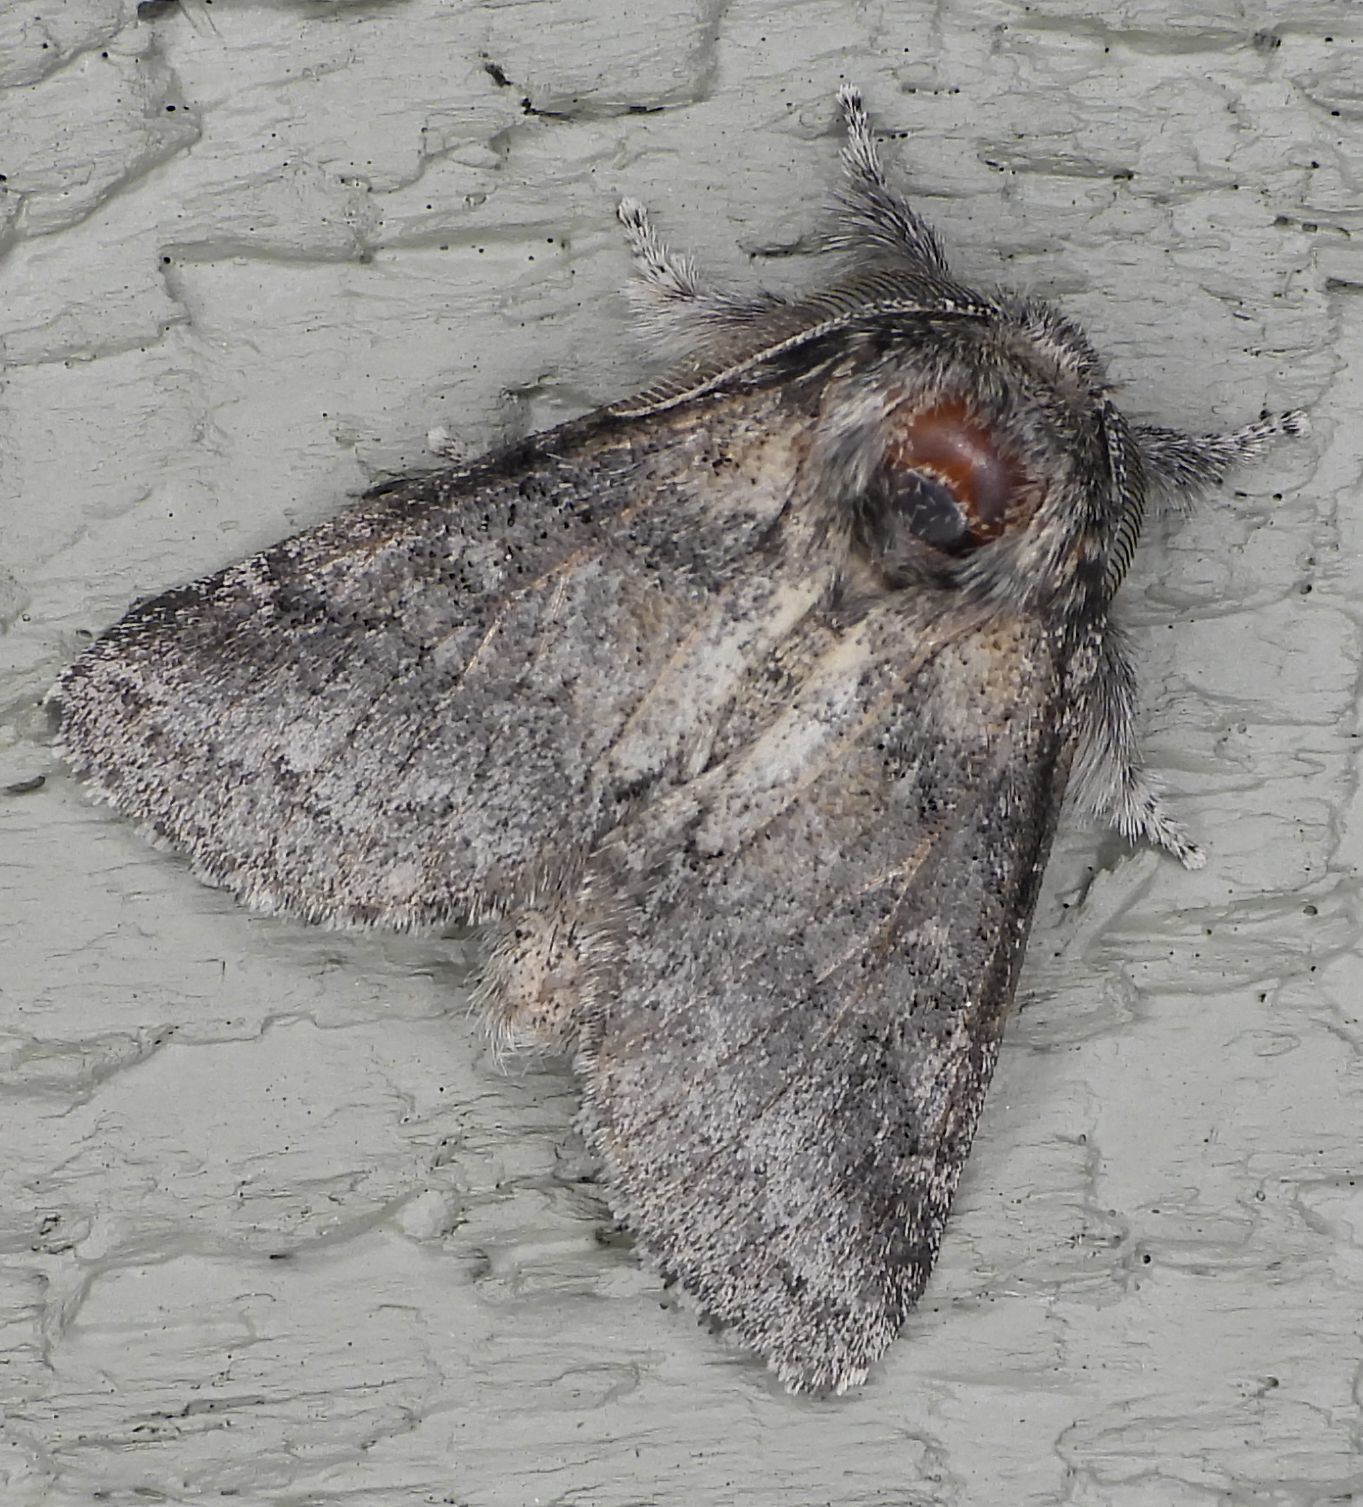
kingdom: Animalia
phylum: Arthropoda
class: Insecta
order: Lepidoptera
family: Notodontidae
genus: Gluphisia
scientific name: Gluphisia septentrionis
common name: Common gluphisia
